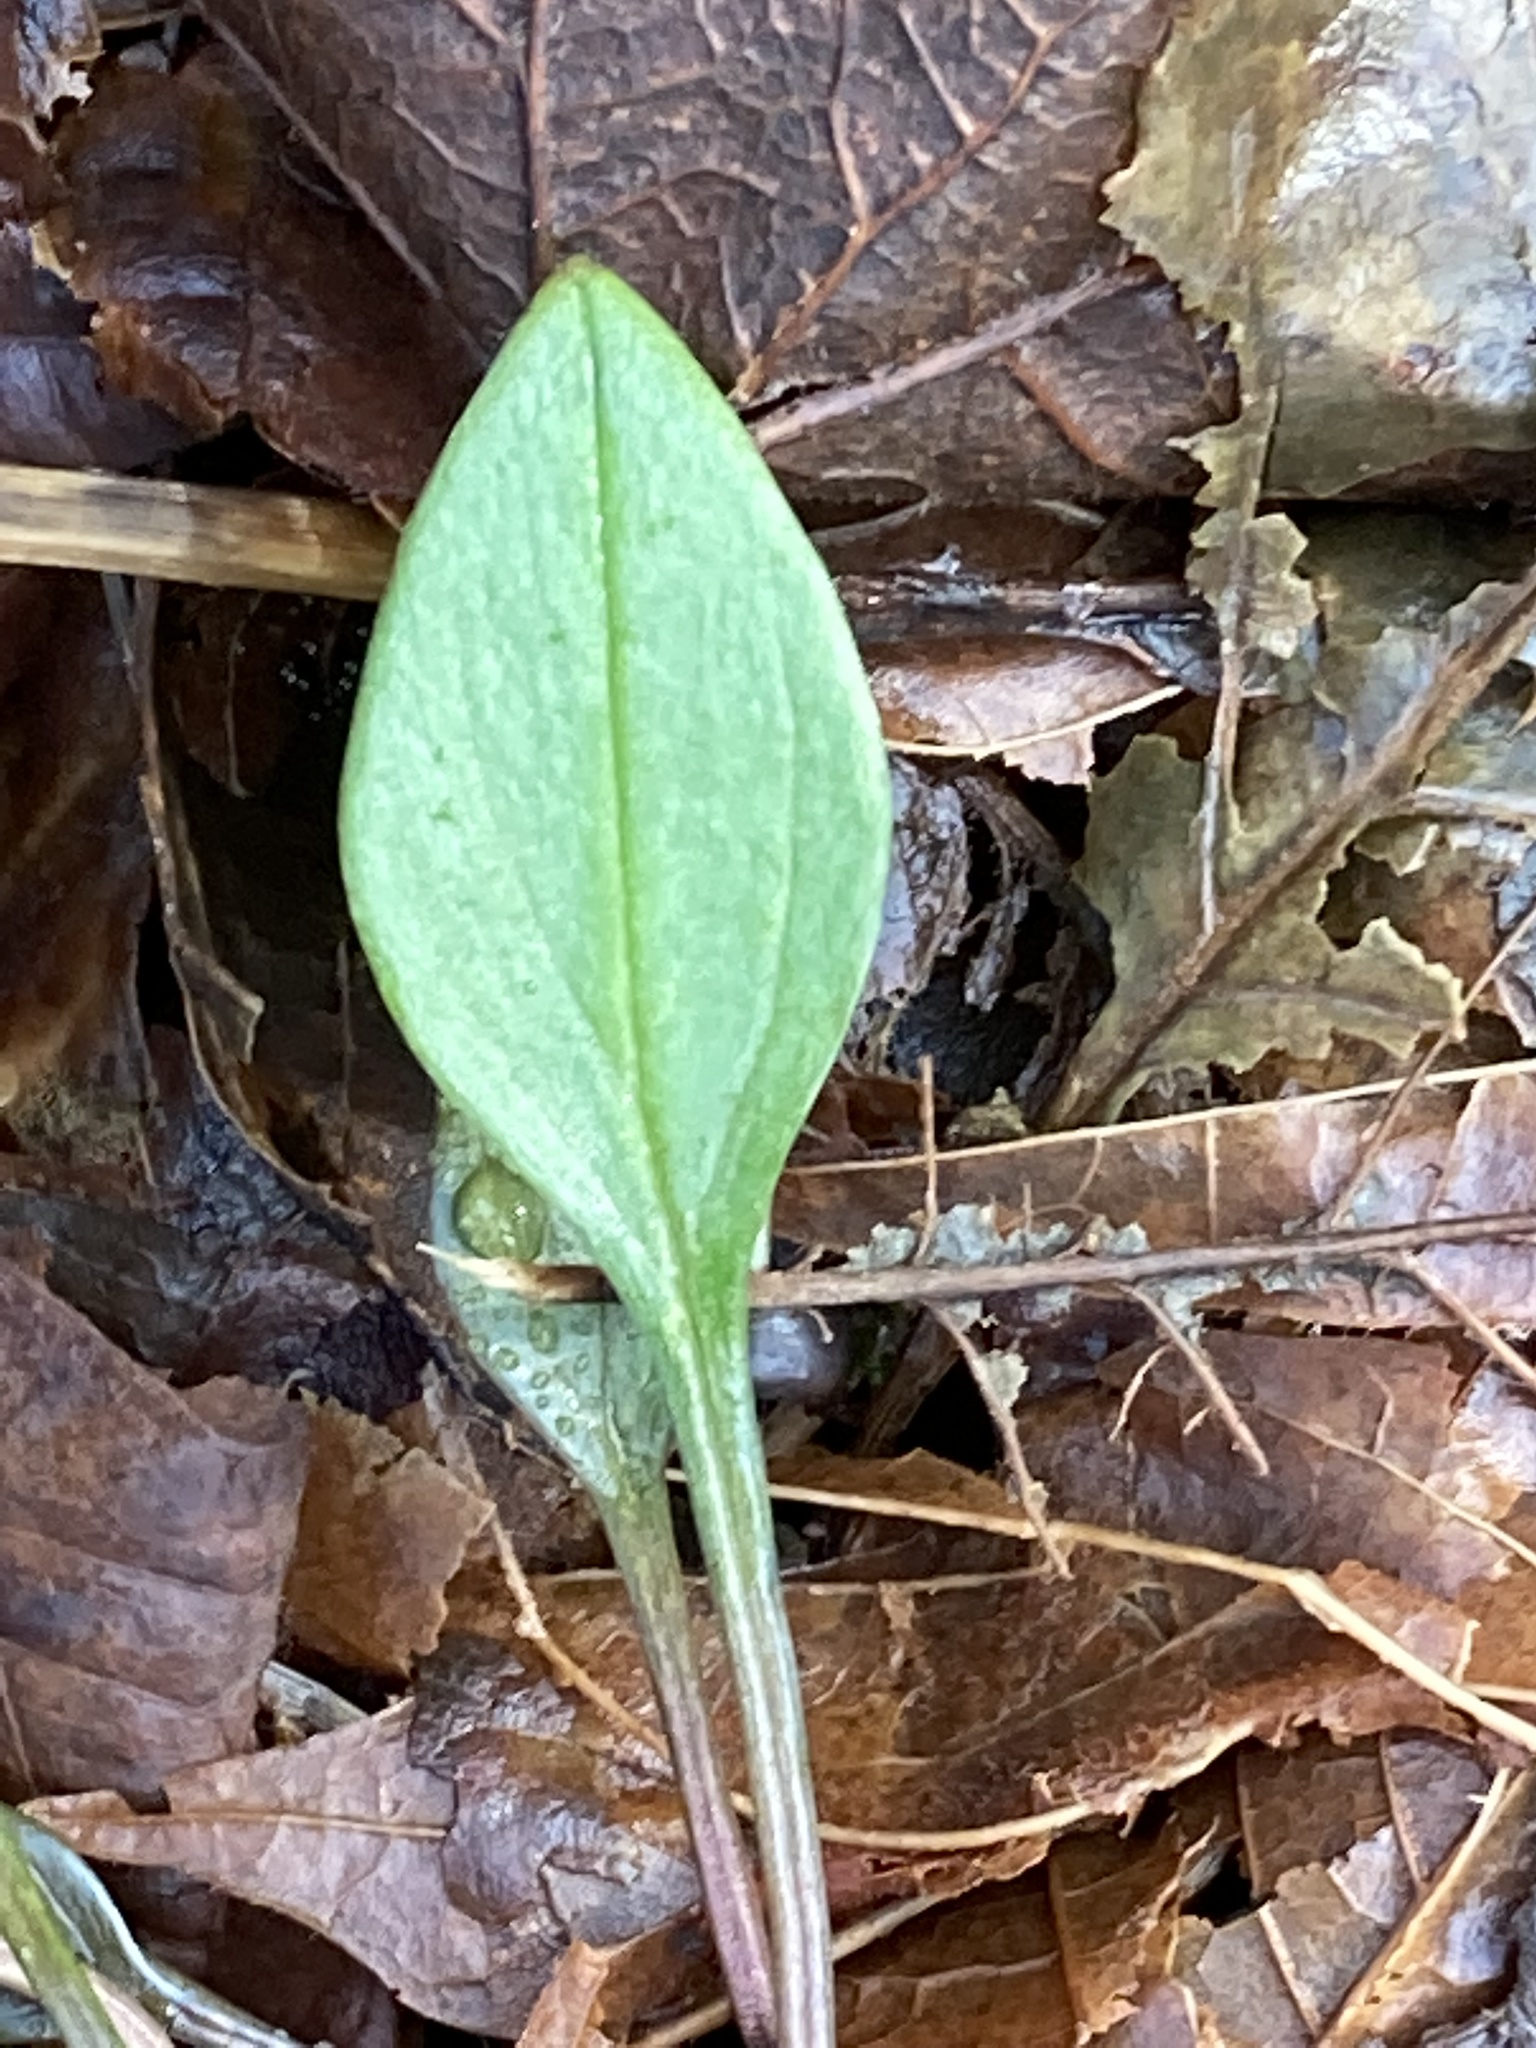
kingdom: Plantae
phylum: Tracheophyta
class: Magnoliopsida
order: Caryophyllales
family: Montiaceae
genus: Claytonia
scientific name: Claytonia sibirica
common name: Pink purslane
